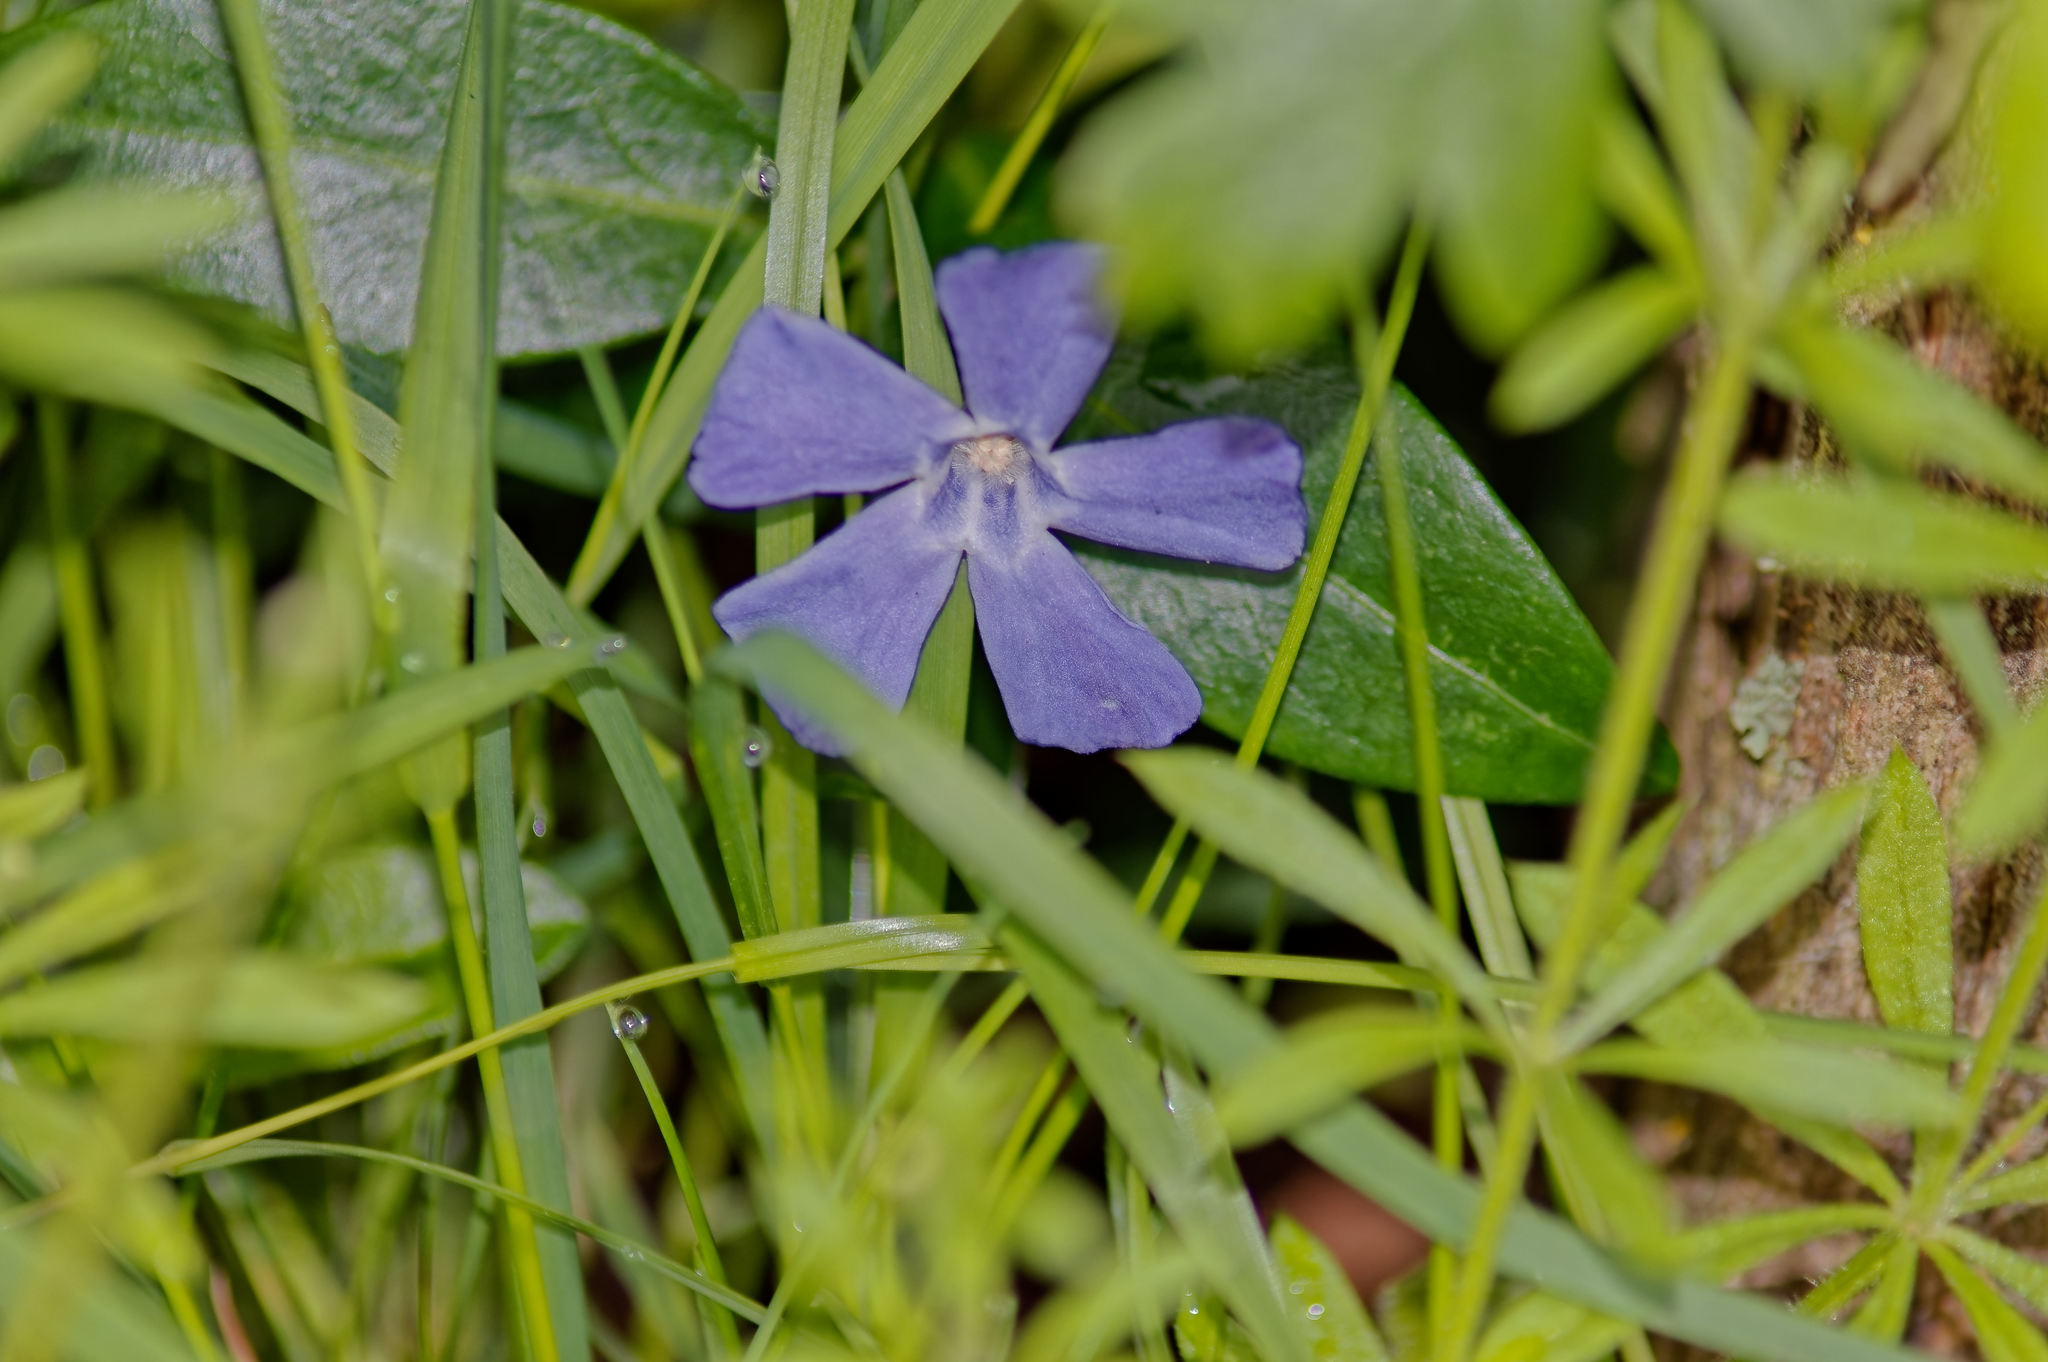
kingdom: Plantae
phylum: Tracheophyta
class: Magnoliopsida
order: Gentianales
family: Apocynaceae
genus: Vinca
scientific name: Vinca minor
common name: Lesser periwinkle
